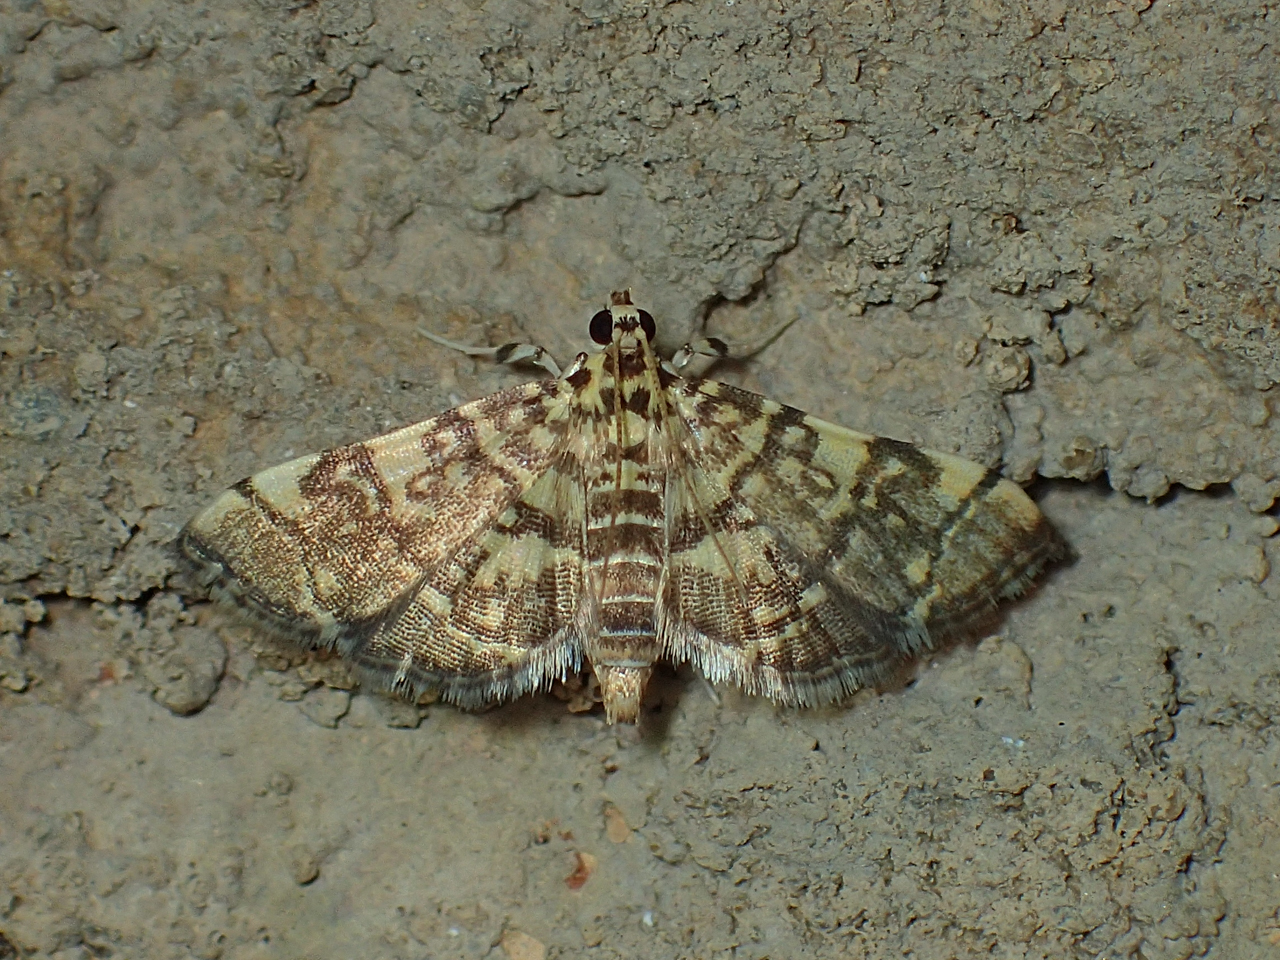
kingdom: Animalia
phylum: Arthropoda
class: Insecta
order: Lepidoptera
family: Crambidae
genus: Apogeshna
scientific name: Apogeshna stenialis
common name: Checkered apogeshna moth
